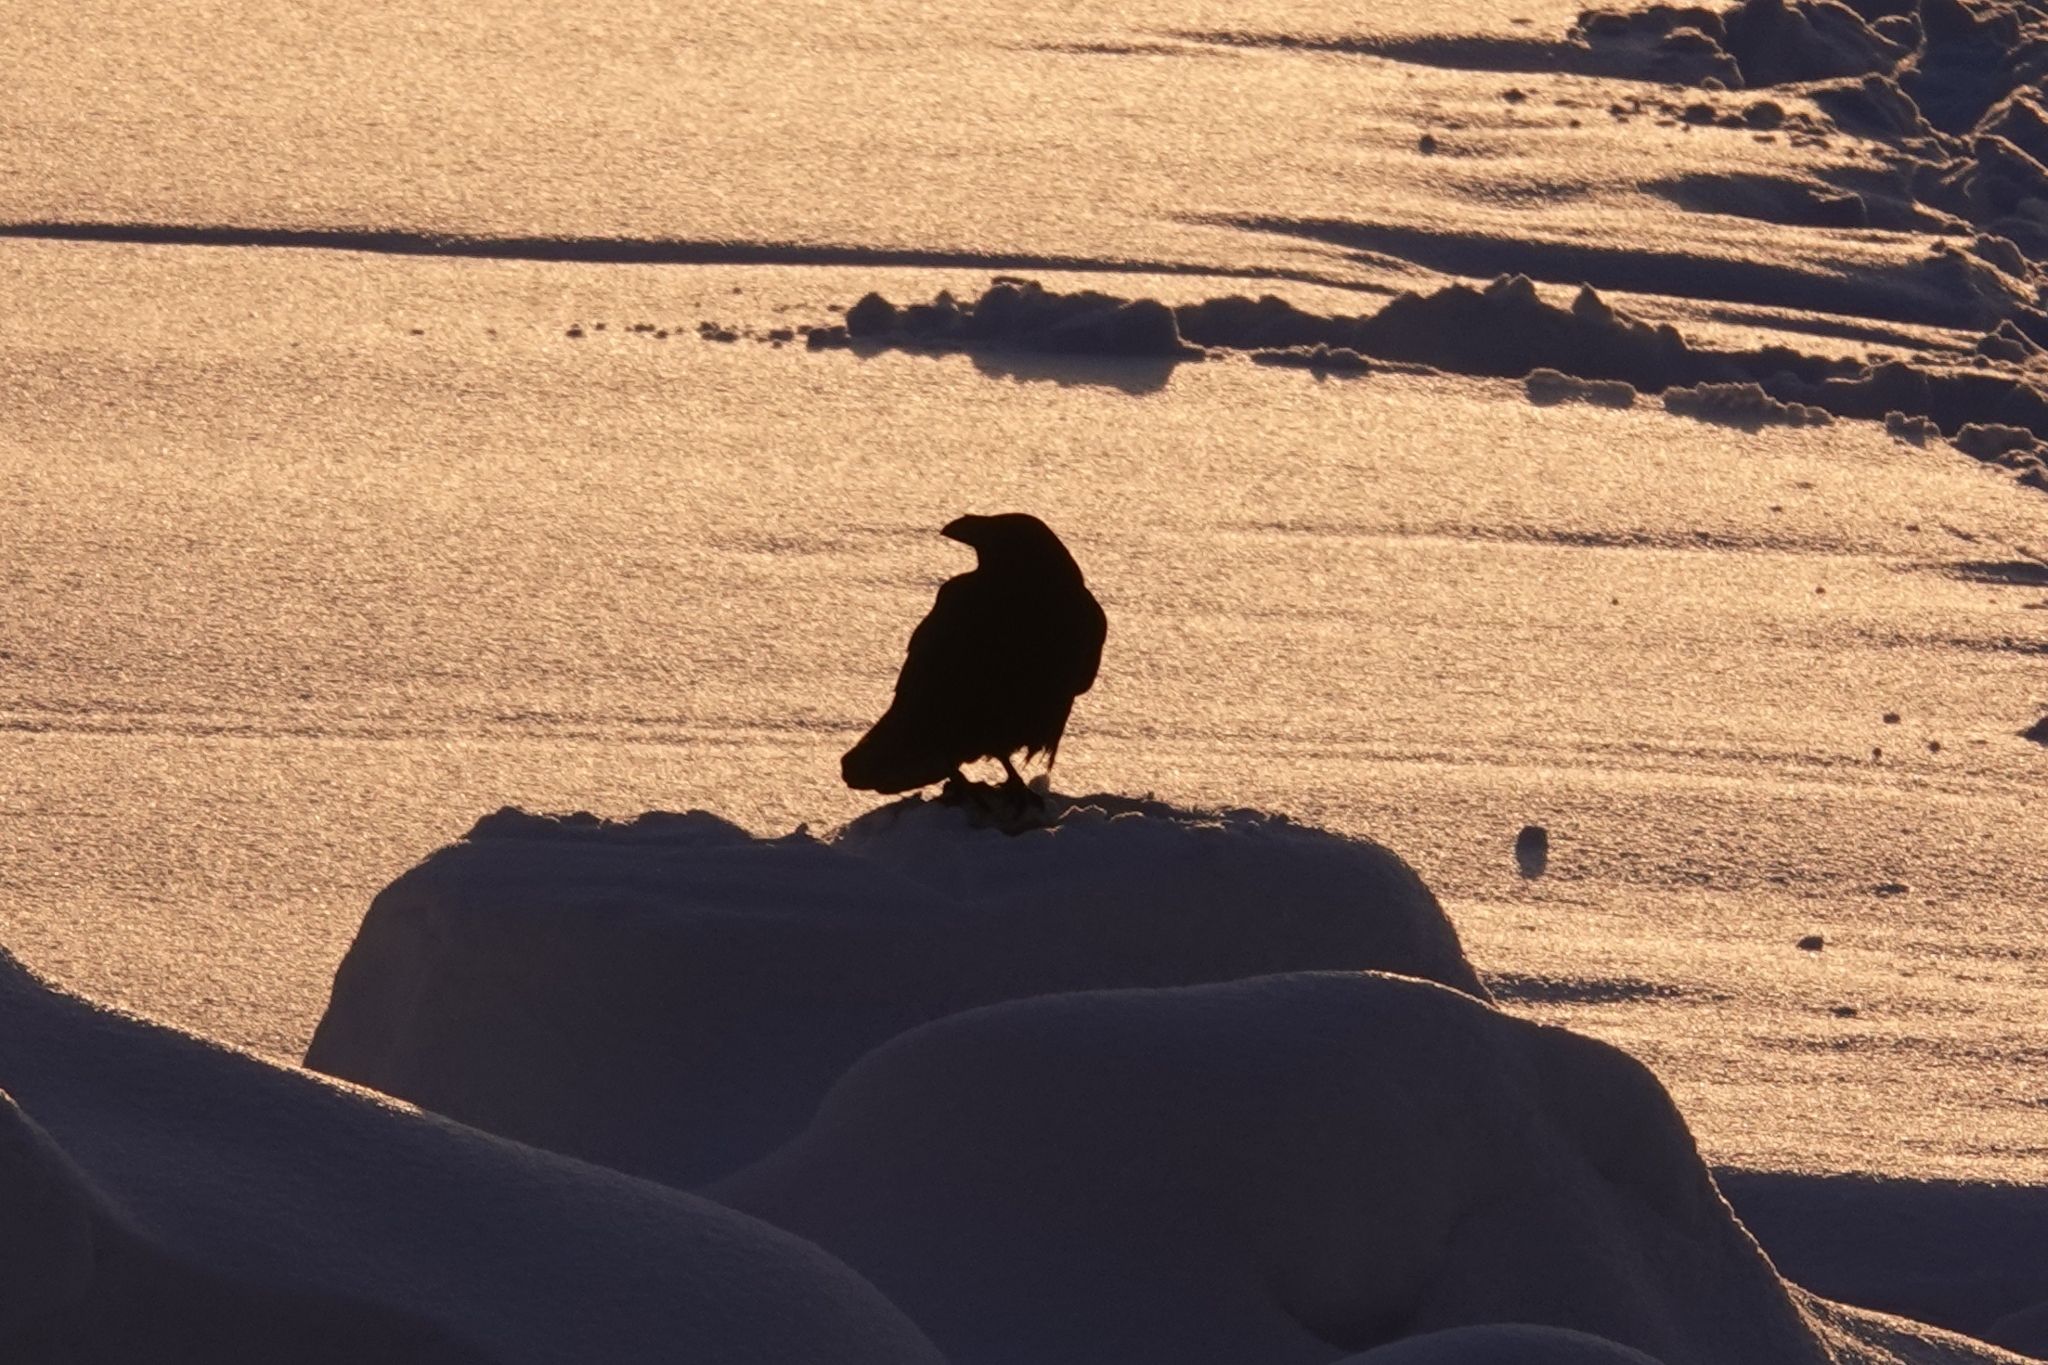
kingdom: Animalia
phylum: Chordata
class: Aves
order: Passeriformes
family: Corvidae
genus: Corvus
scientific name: Corvus corax
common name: Common raven
